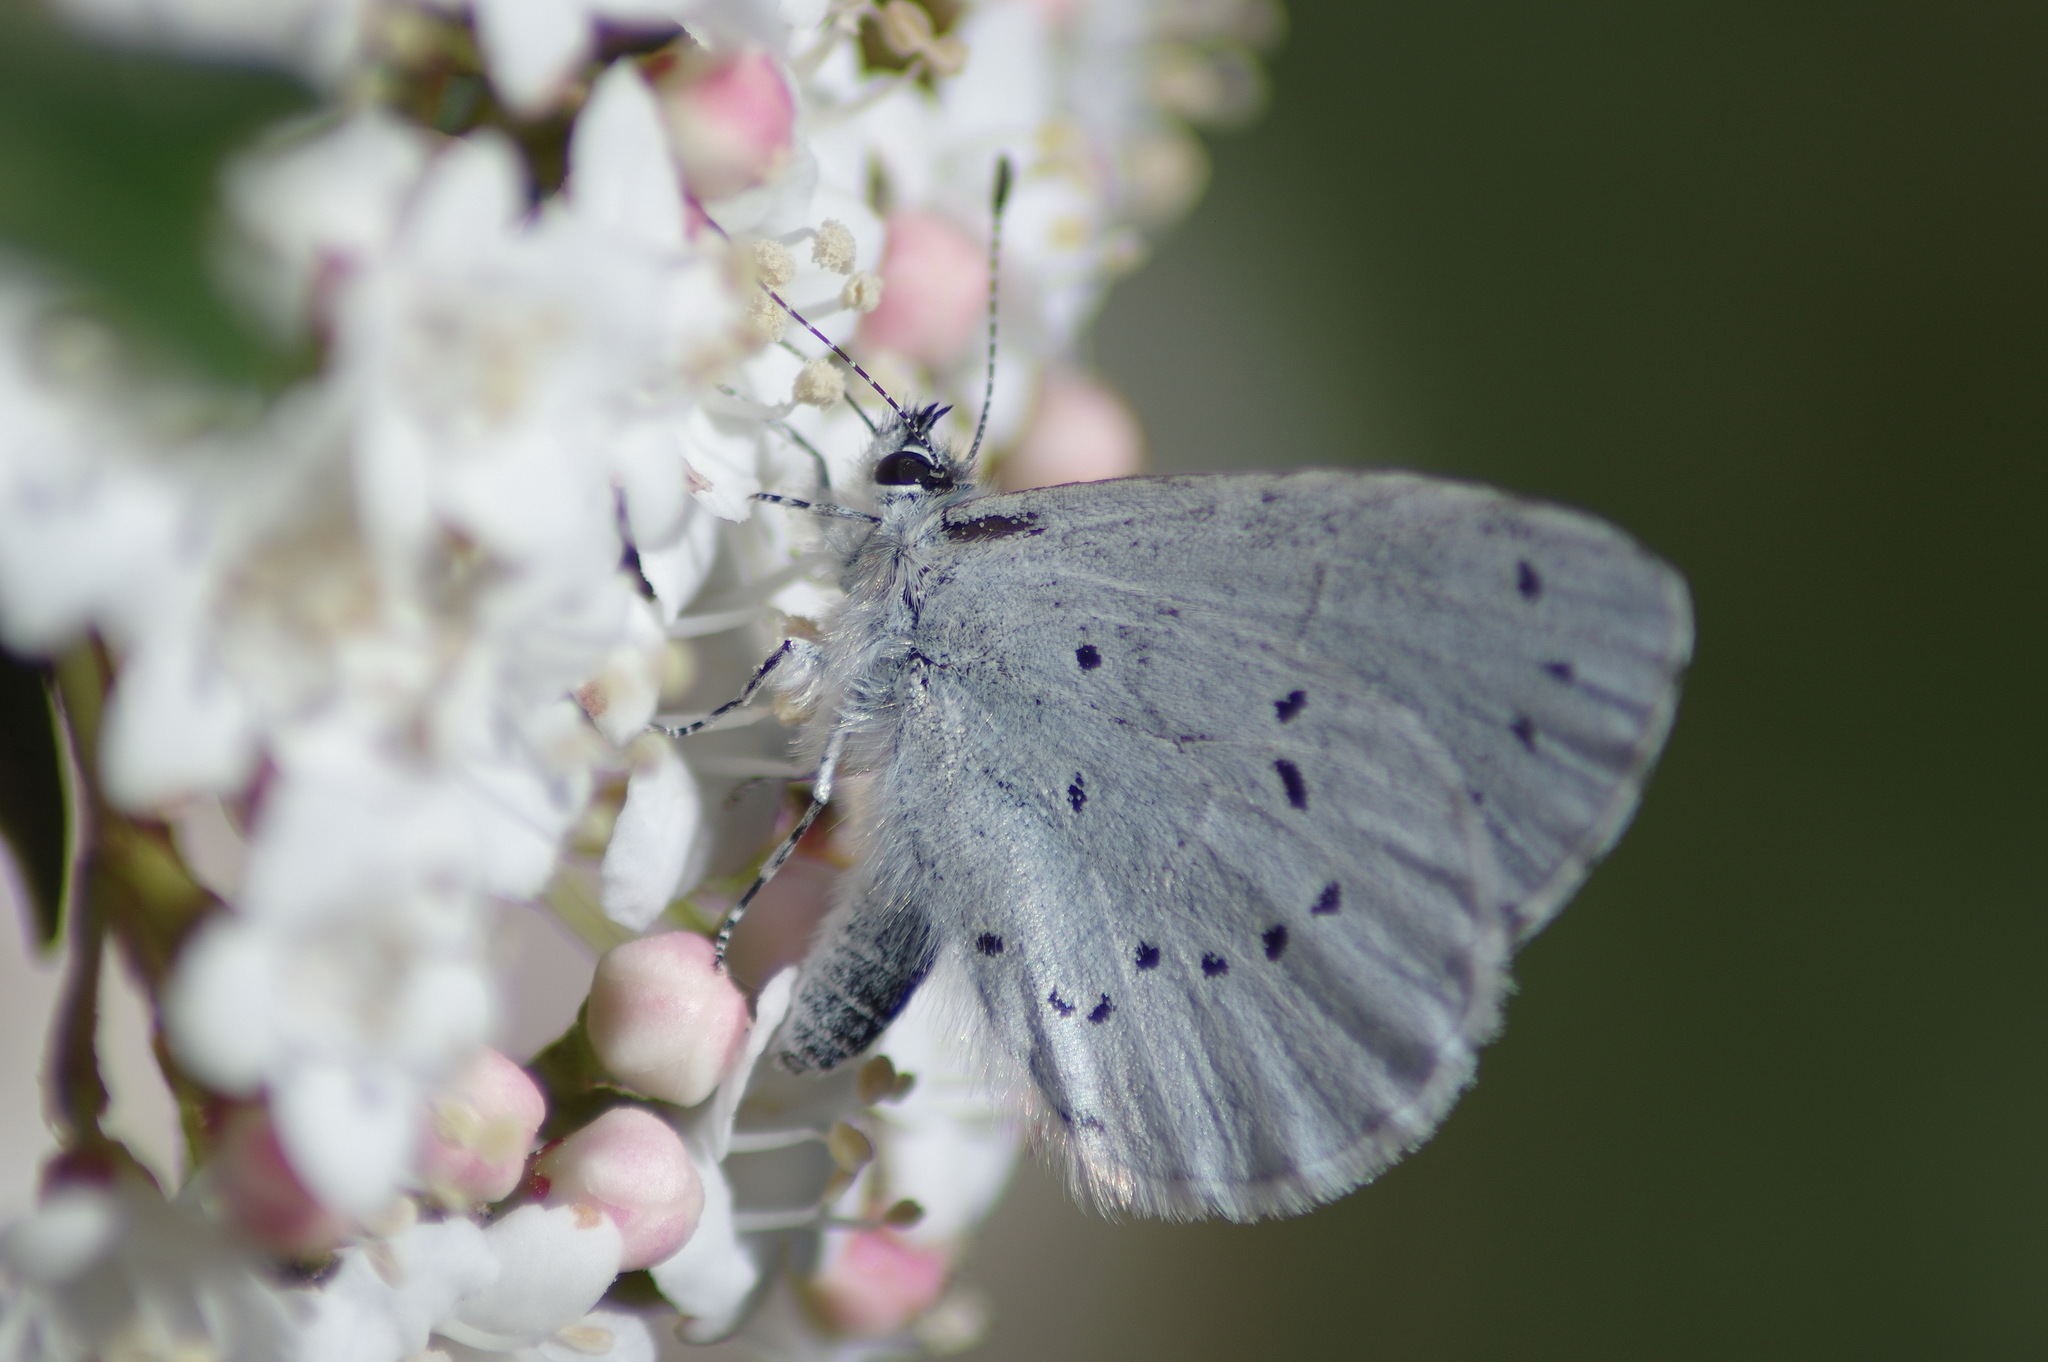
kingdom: Animalia
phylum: Arthropoda
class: Insecta
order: Lepidoptera
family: Lycaenidae
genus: Celastrina
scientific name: Celastrina argiolus
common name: Holly blue
